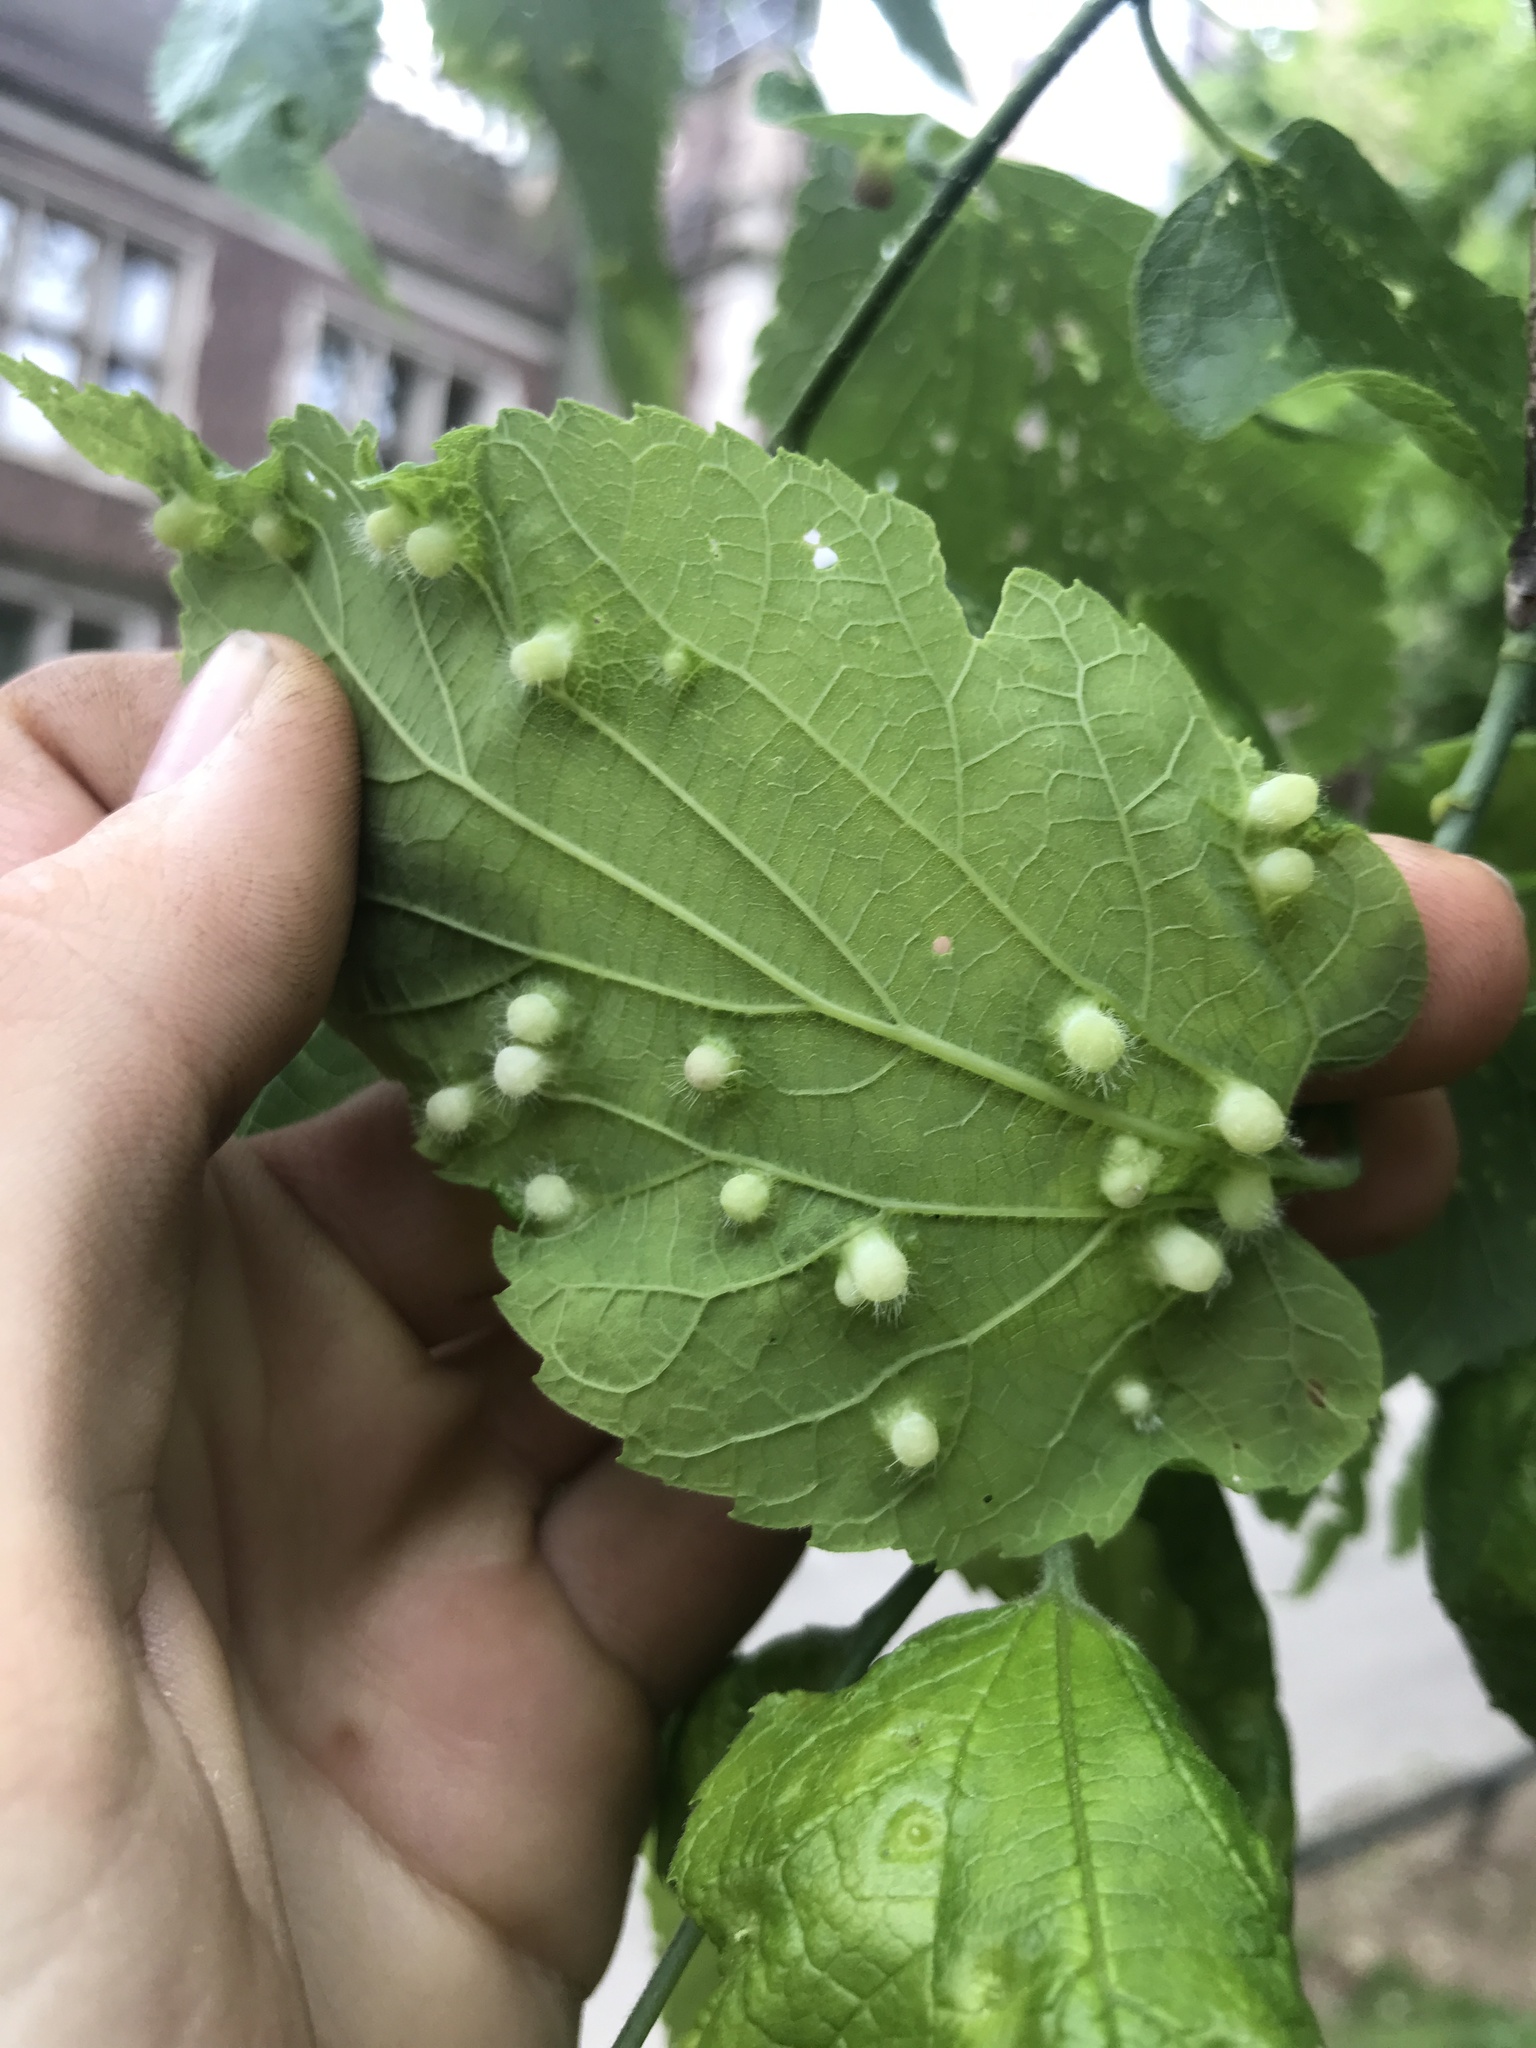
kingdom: Animalia
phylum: Arthropoda
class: Insecta
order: Hemiptera
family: Aphalaridae
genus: Pachypsylla
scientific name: Pachypsylla celtidismamma
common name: Hackberry nipplegall psyllid
